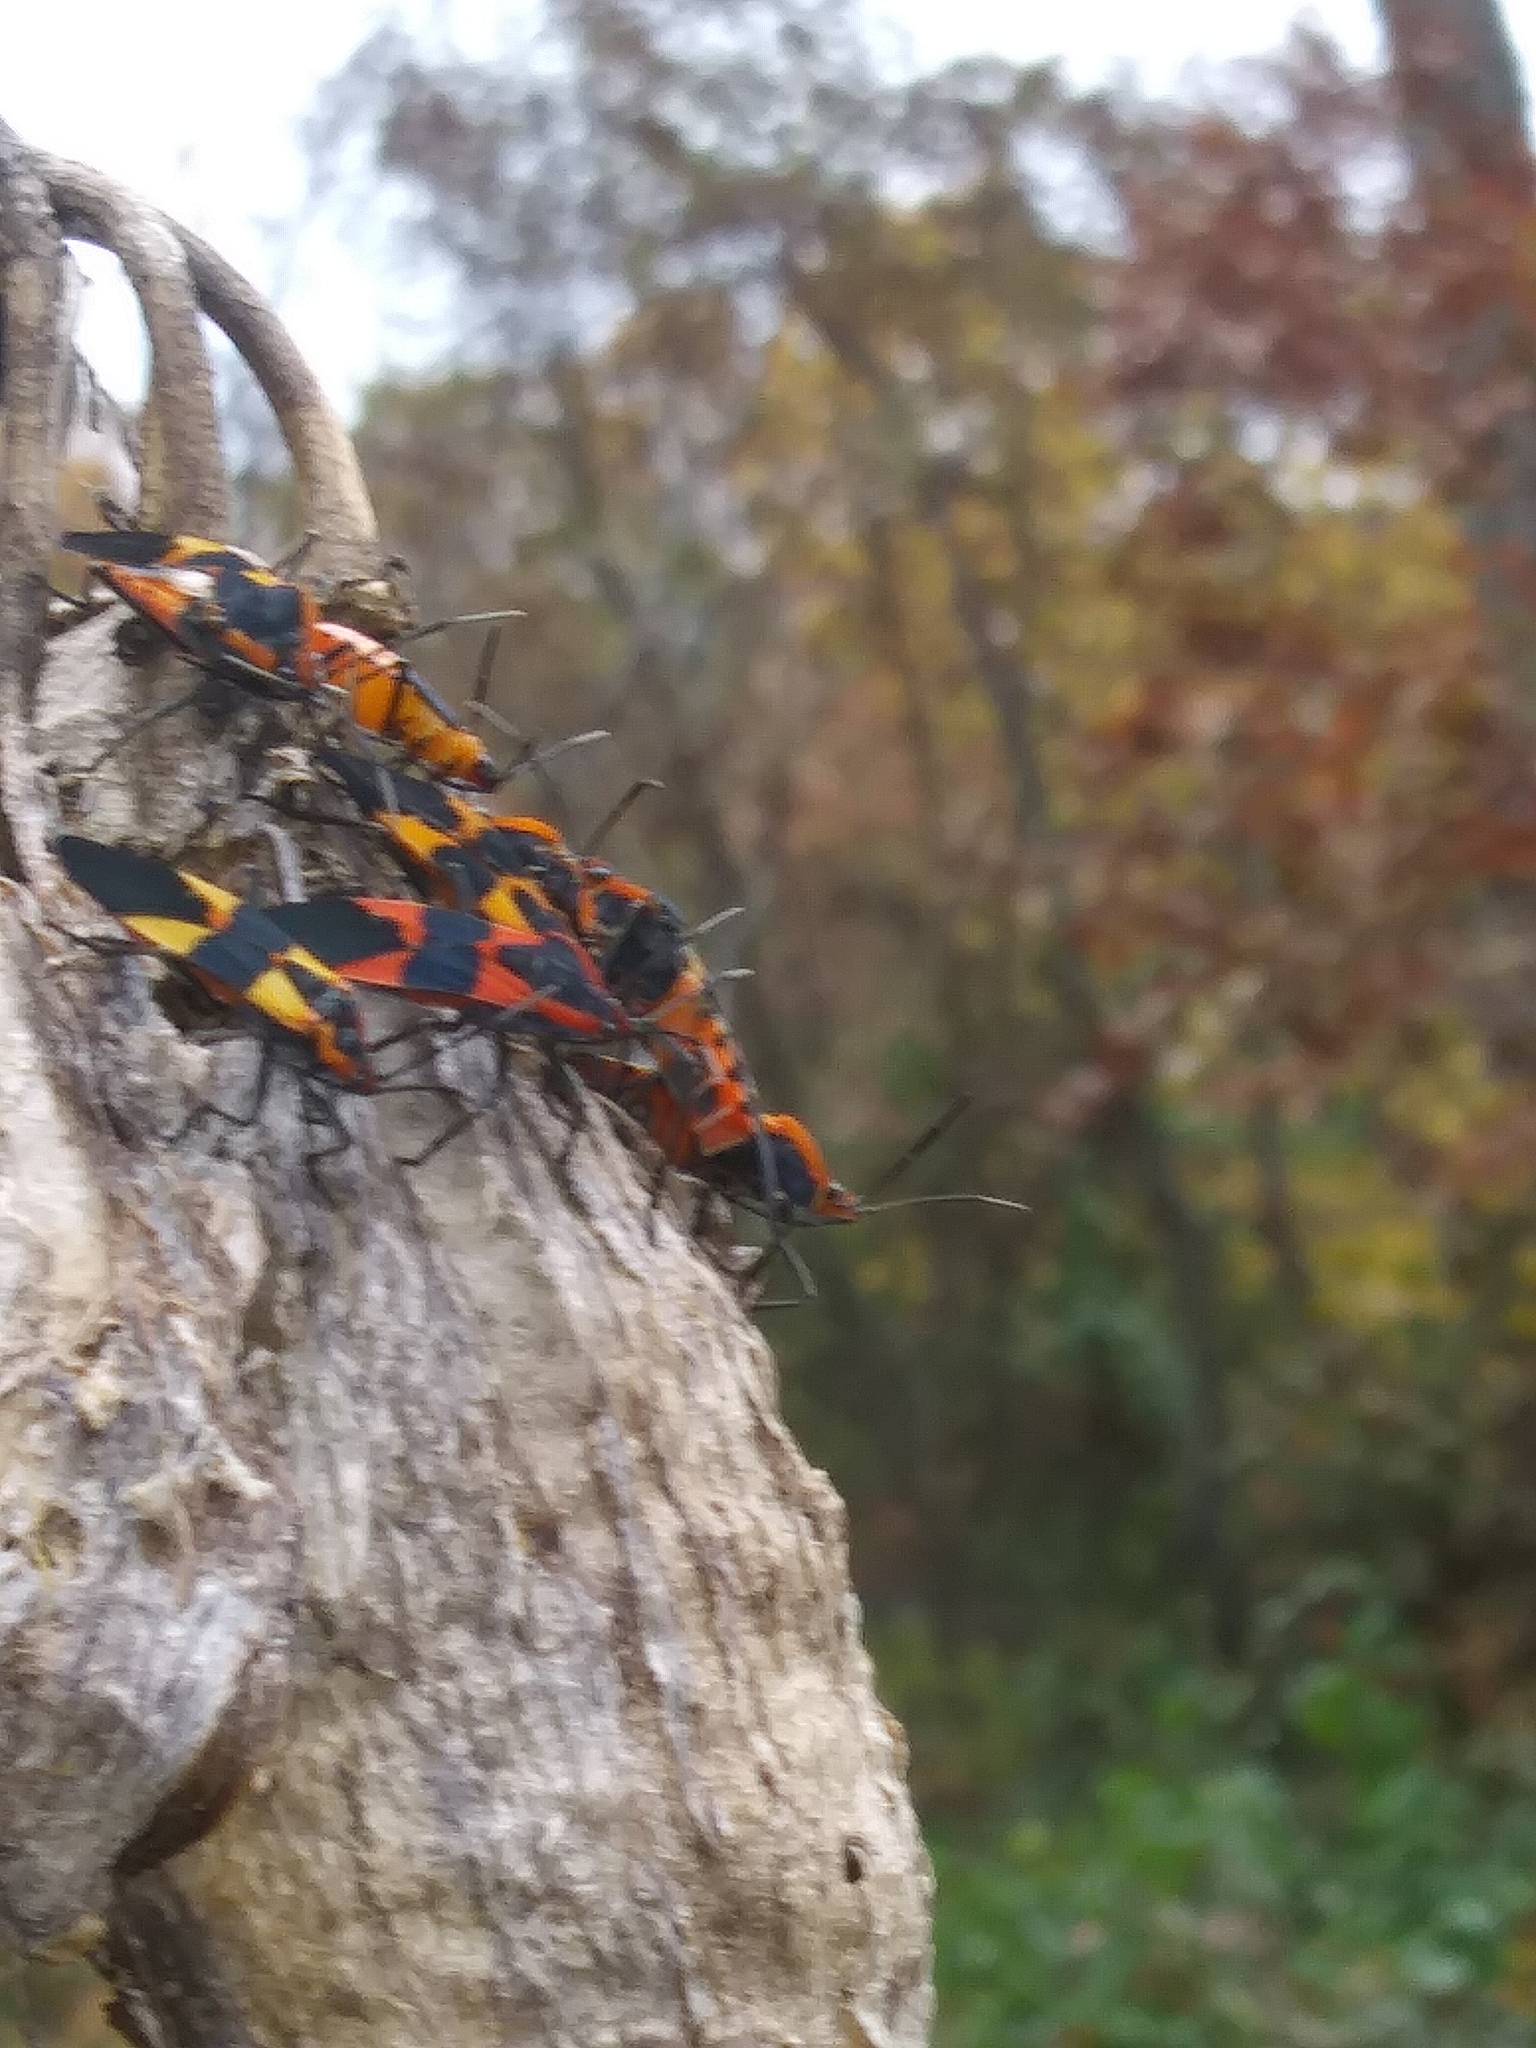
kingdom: Animalia
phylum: Arthropoda
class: Insecta
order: Hemiptera
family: Lygaeidae
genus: Oncopeltus
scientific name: Oncopeltus fasciatus
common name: Large milkweed bug
